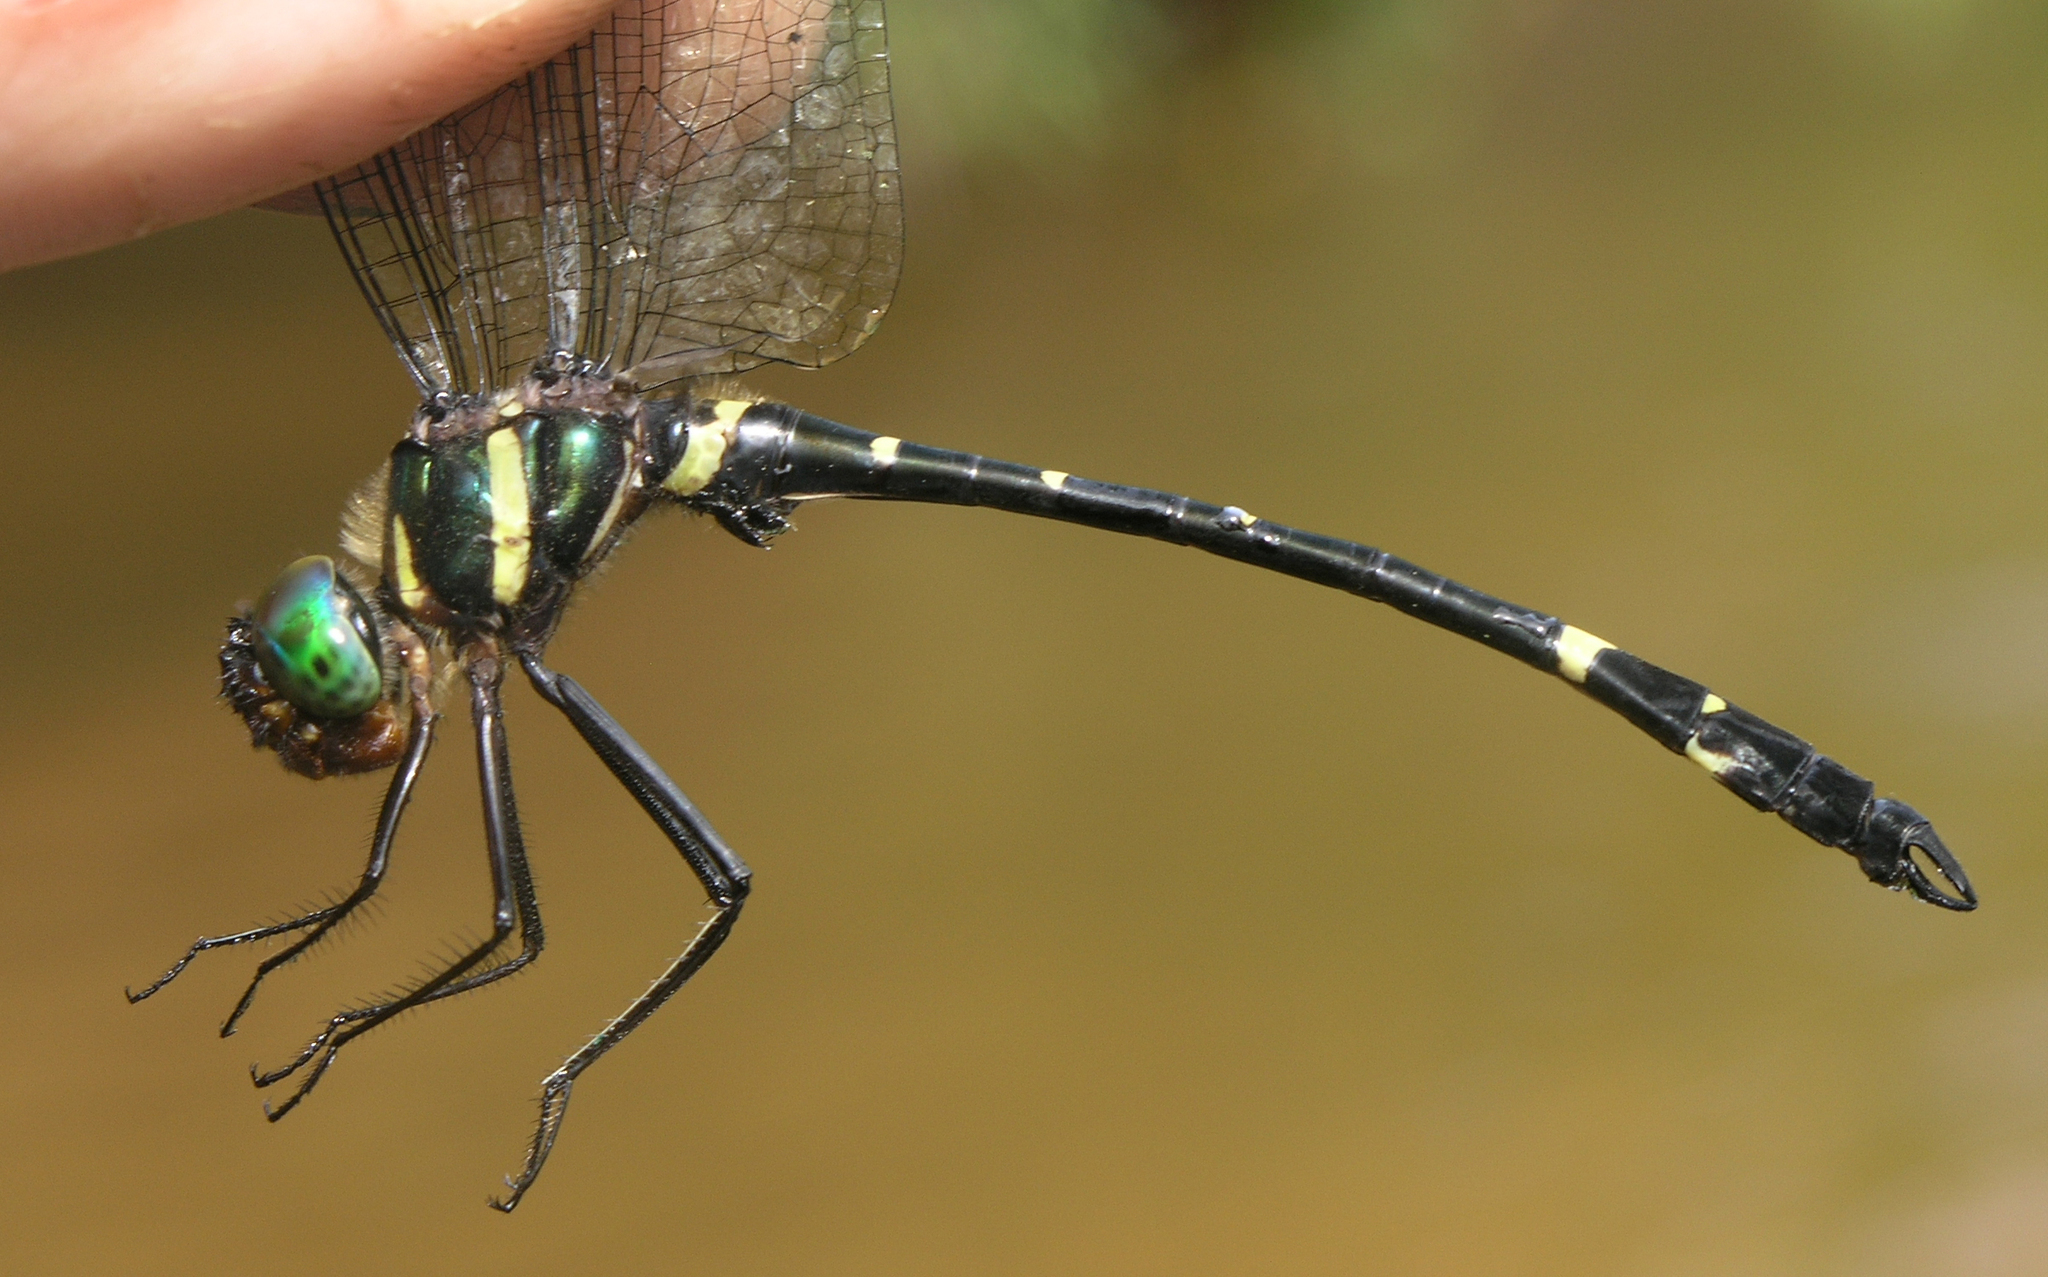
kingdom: Animalia
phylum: Arthropoda
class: Insecta
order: Odonata
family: Macromiidae
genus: Macromia
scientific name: Macromia septima
